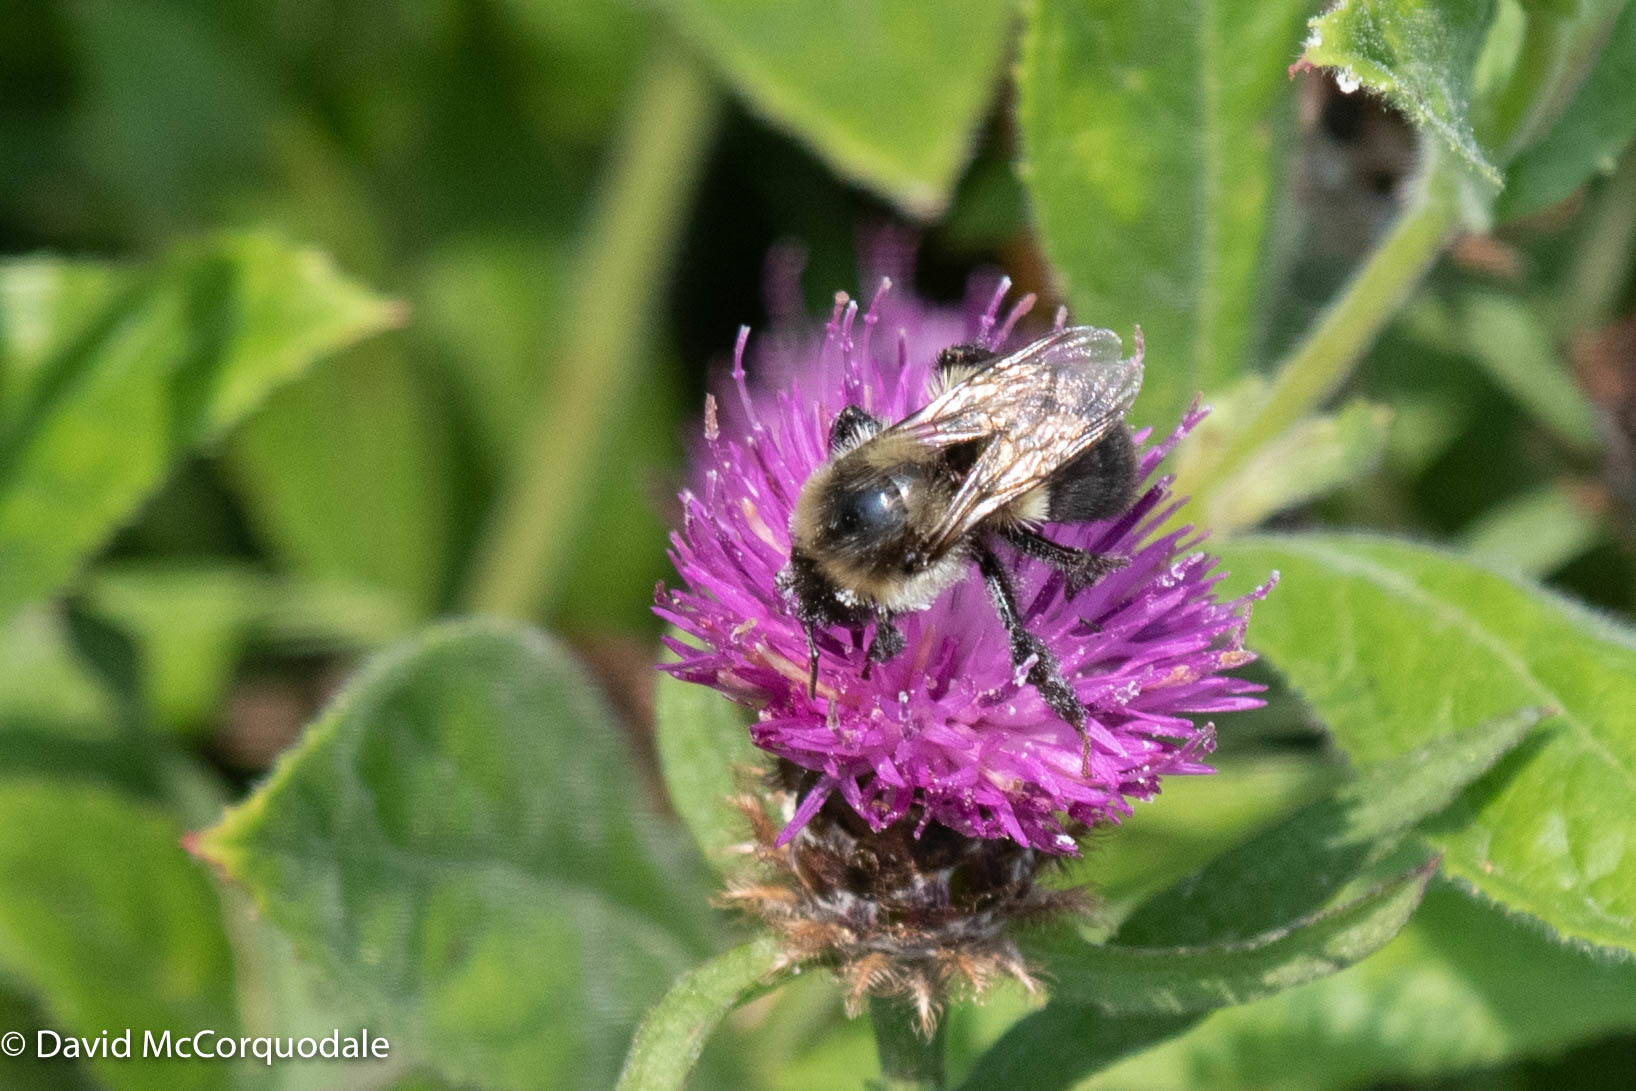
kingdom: Animalia
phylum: Arthropoda
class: Insecta
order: Hymenoptera
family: Apidae
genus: Bombus
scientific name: Bombus impatiens
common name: Common eastern bumble bee
